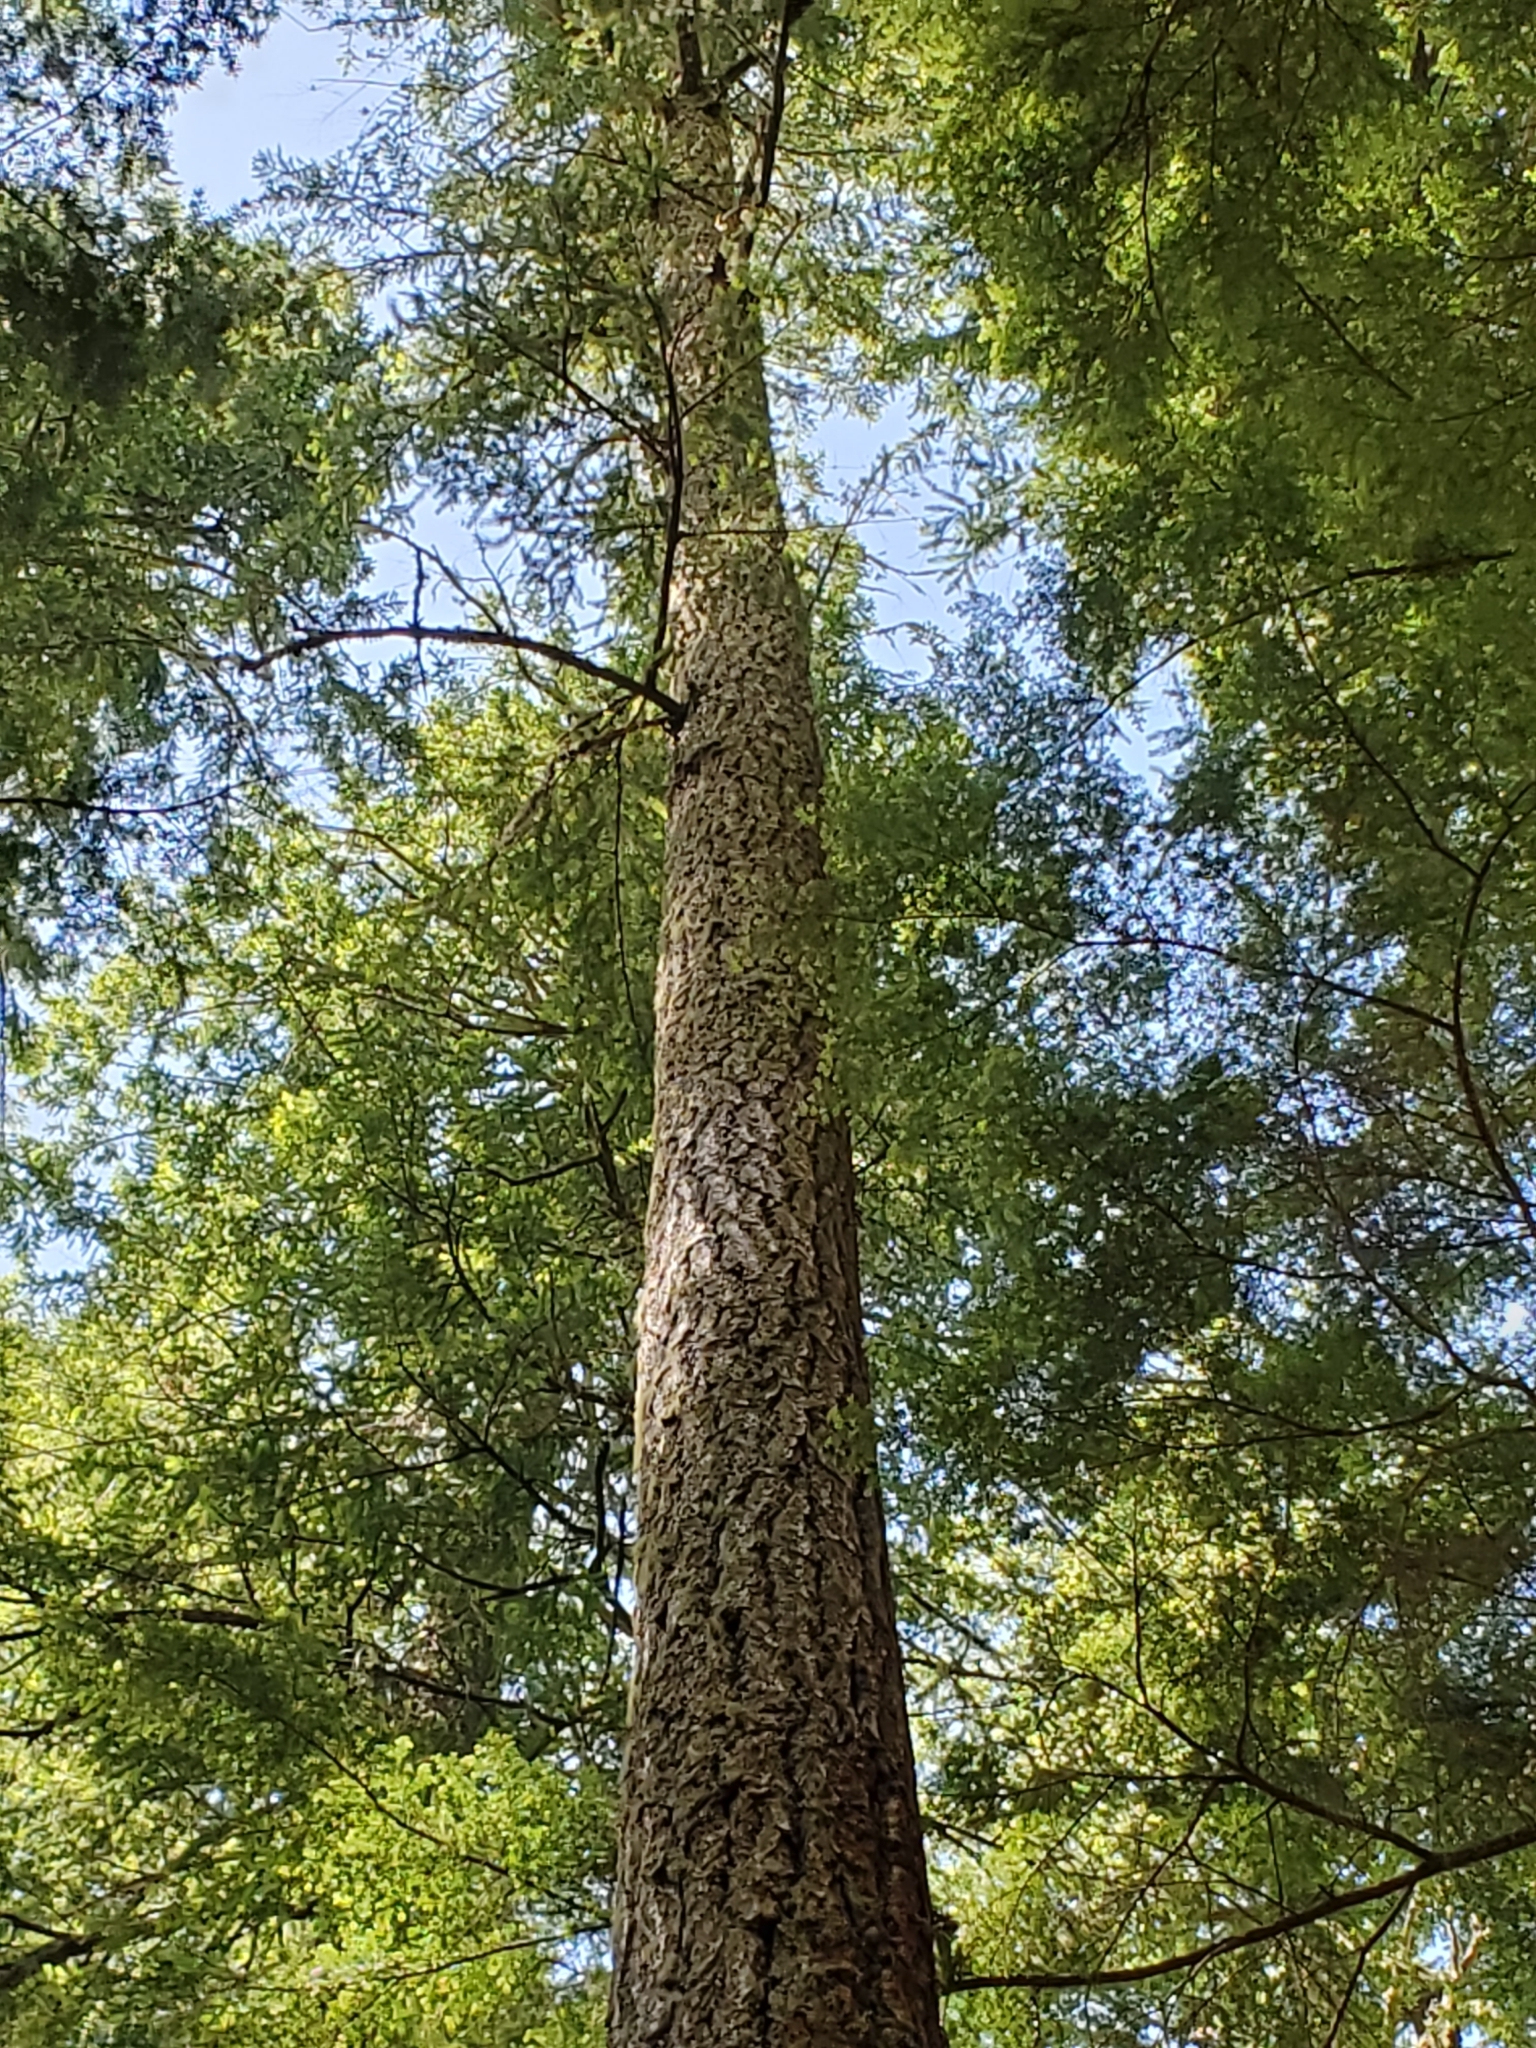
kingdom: Plantae
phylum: Tracheophyta
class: Pinopsida
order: Pinales
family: Pinaceae
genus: Pseudotsuga
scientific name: Pseudotsuga menziesii
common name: Douglas fir
